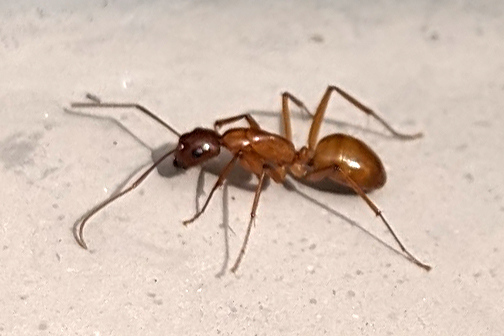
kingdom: Animalia
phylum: Arthropoda
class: Insecta
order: Hymenoptera
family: Formicidae
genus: Camponotus
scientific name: Camponotus castaneus
